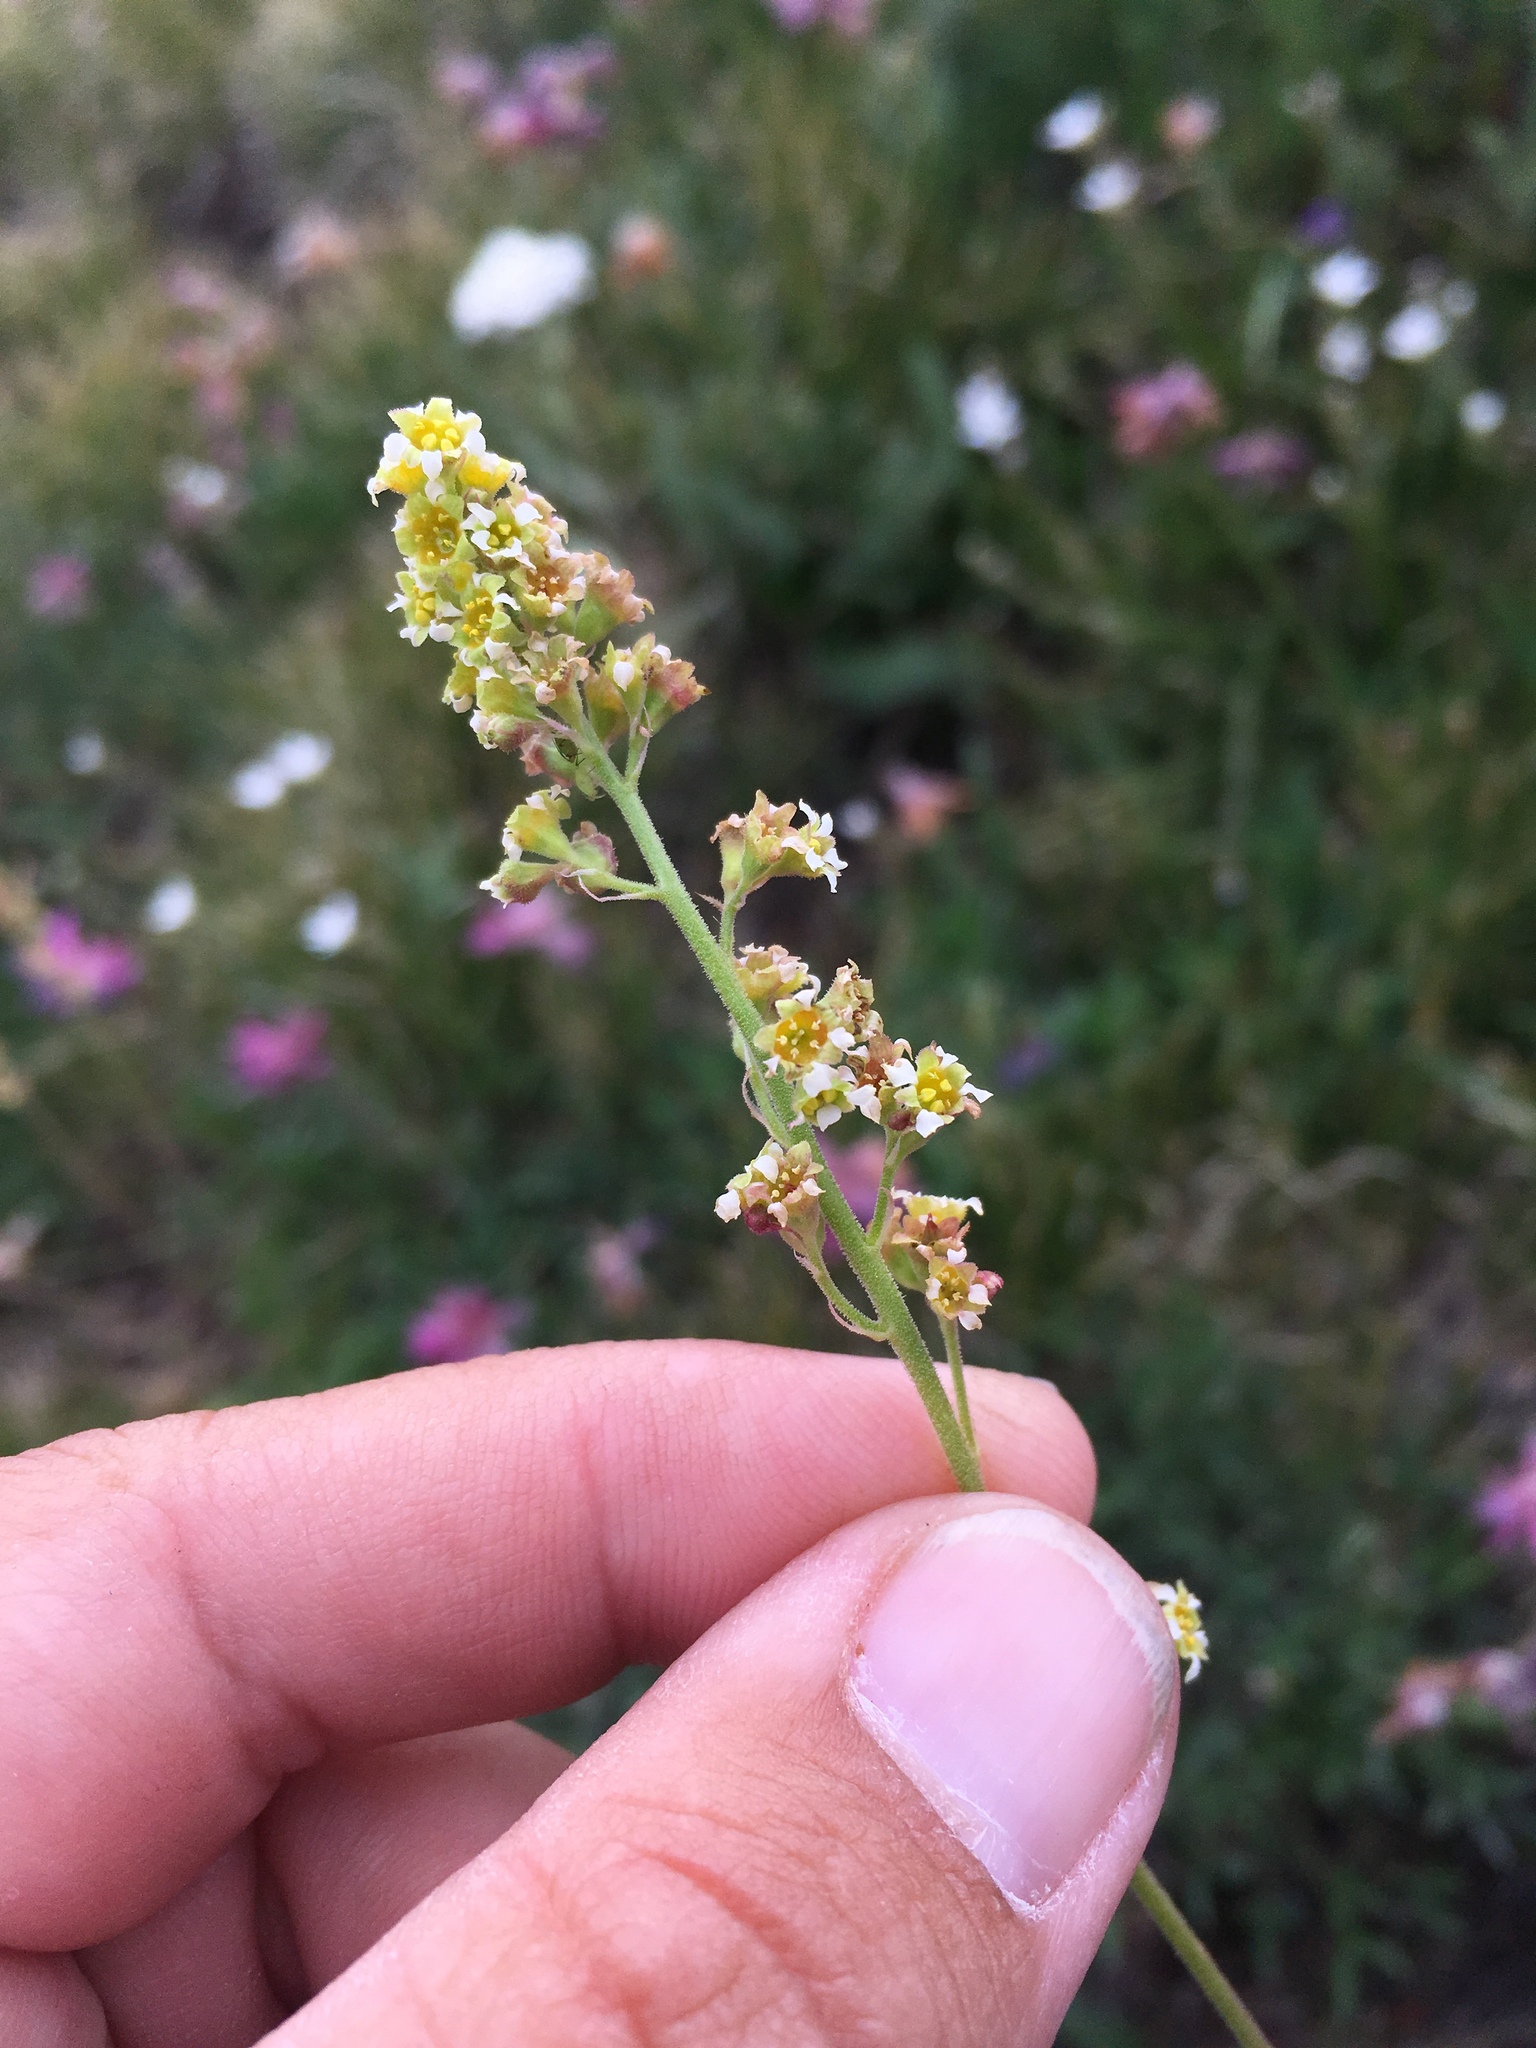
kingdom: Plantae
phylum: Tracheophyta
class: Magnoliopsida
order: Saxifragales
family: Saxifragaceae
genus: Heuchera
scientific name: Heuchera parvifolia
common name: Common alumroot
